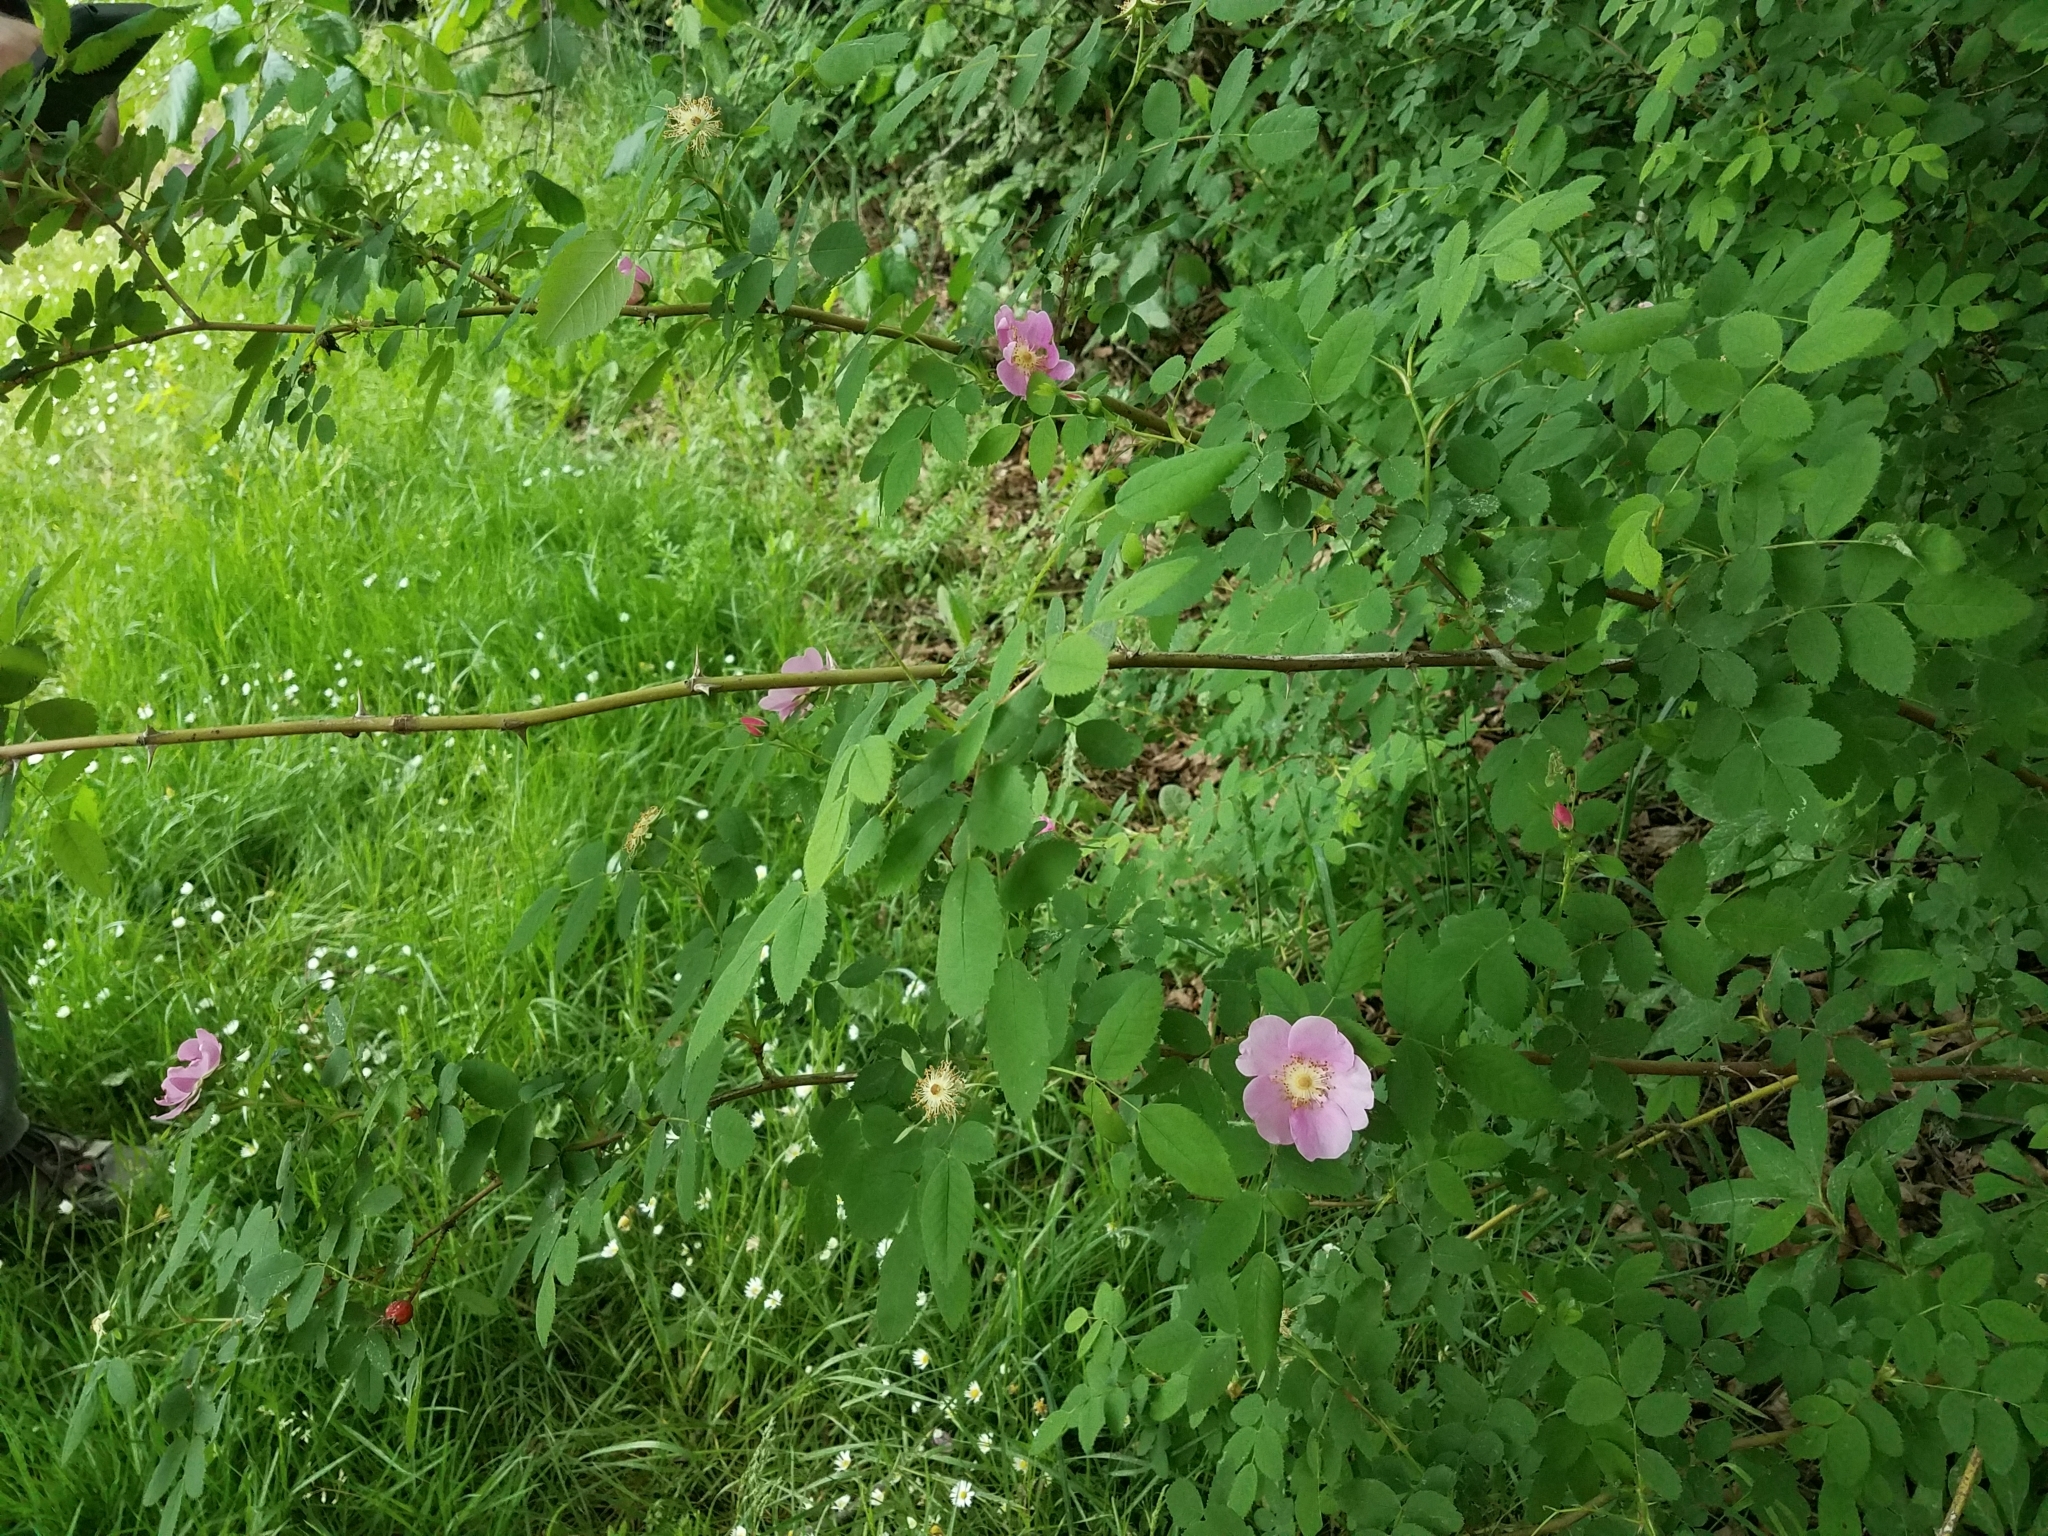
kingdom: Plantae
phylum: Tracheophyta
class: Magnoliopsida
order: Rosales
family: Rosaceae
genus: Rosa
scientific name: Rosa nutkana
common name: Nootka rose
